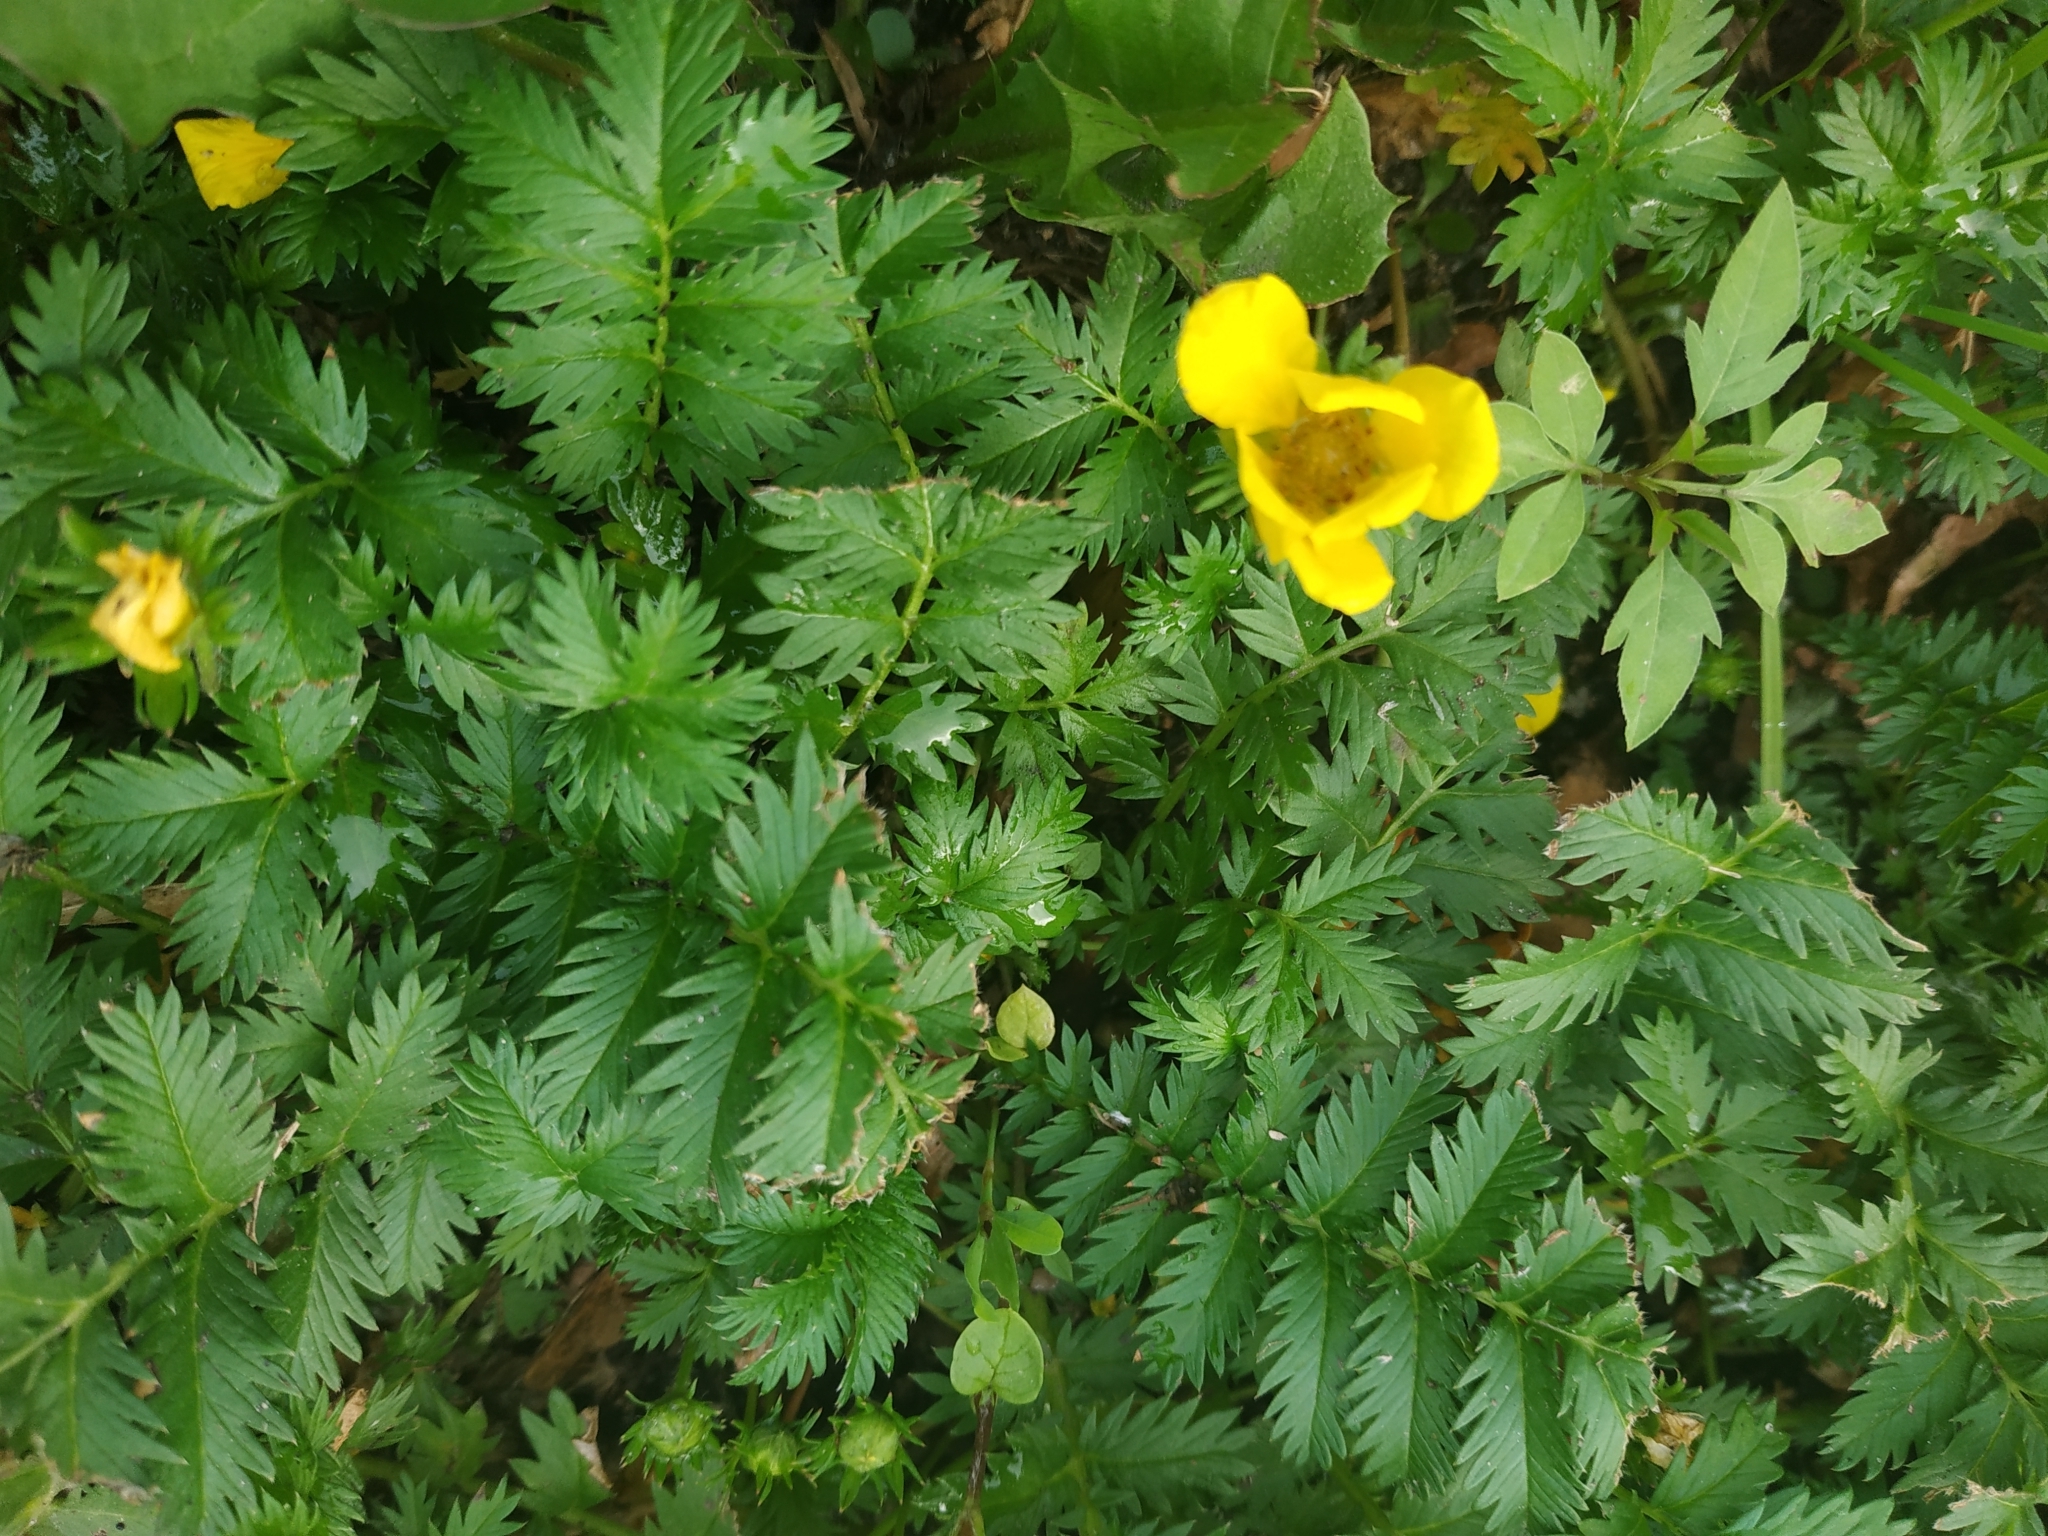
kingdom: Plantae
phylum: Tracheophyta
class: Magnoliopsida
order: Rosales
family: Rosaceae
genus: Argentina
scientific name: Argentina anserina
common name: Common silverweed
